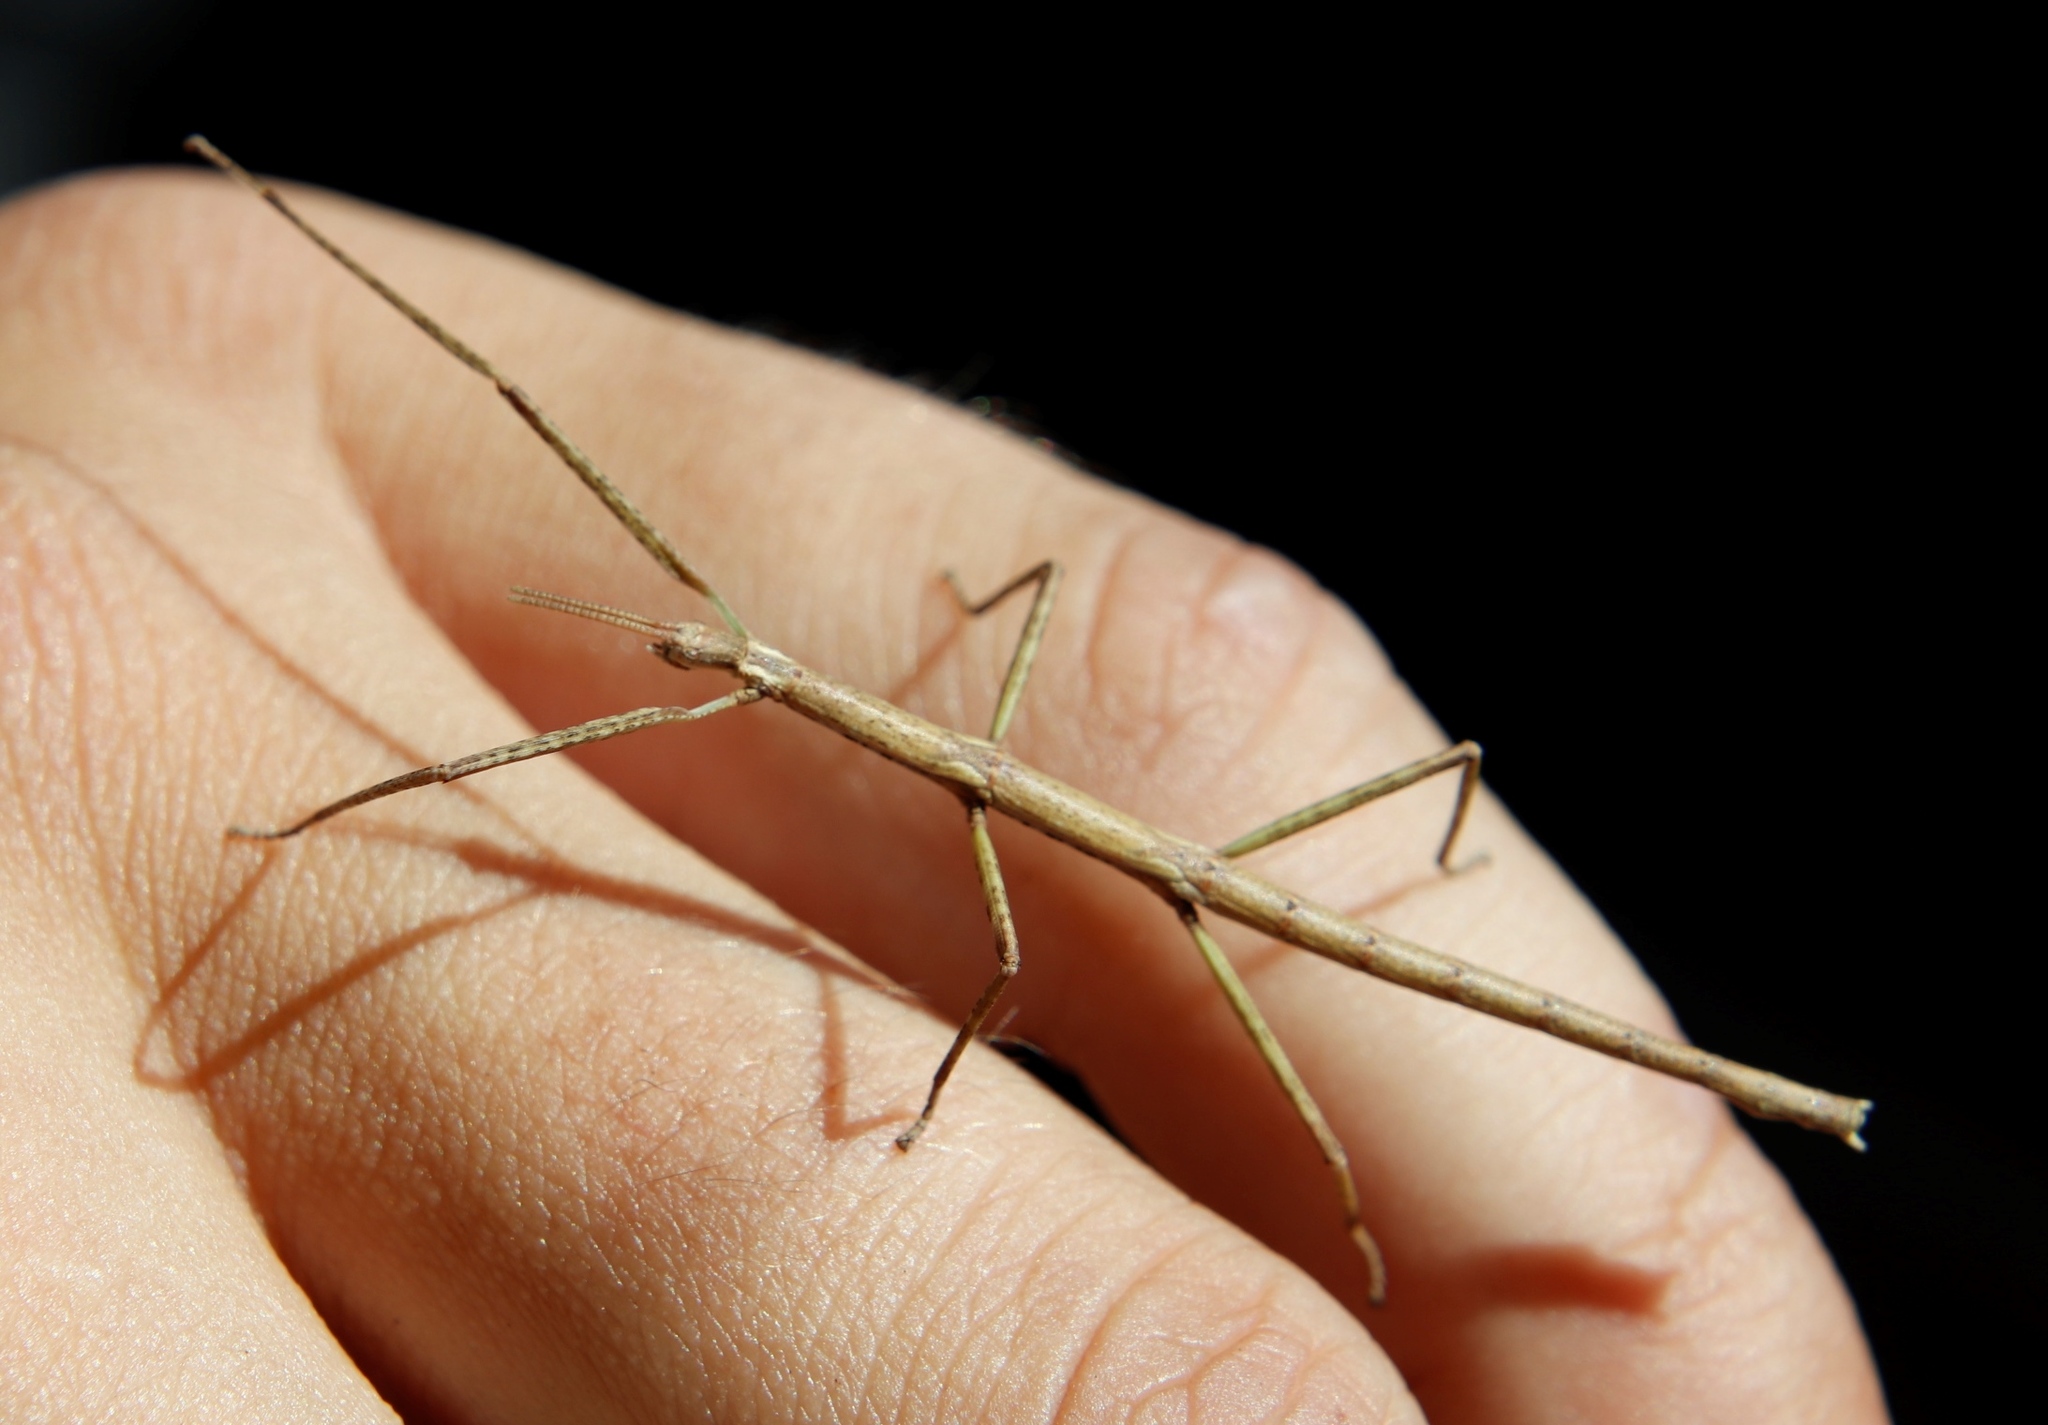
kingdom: Animalia
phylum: Arthropoda
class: Insecta
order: Phasmida
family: Bacillidae
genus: Phalces
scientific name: Phalces brevis
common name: Cape stick insect
